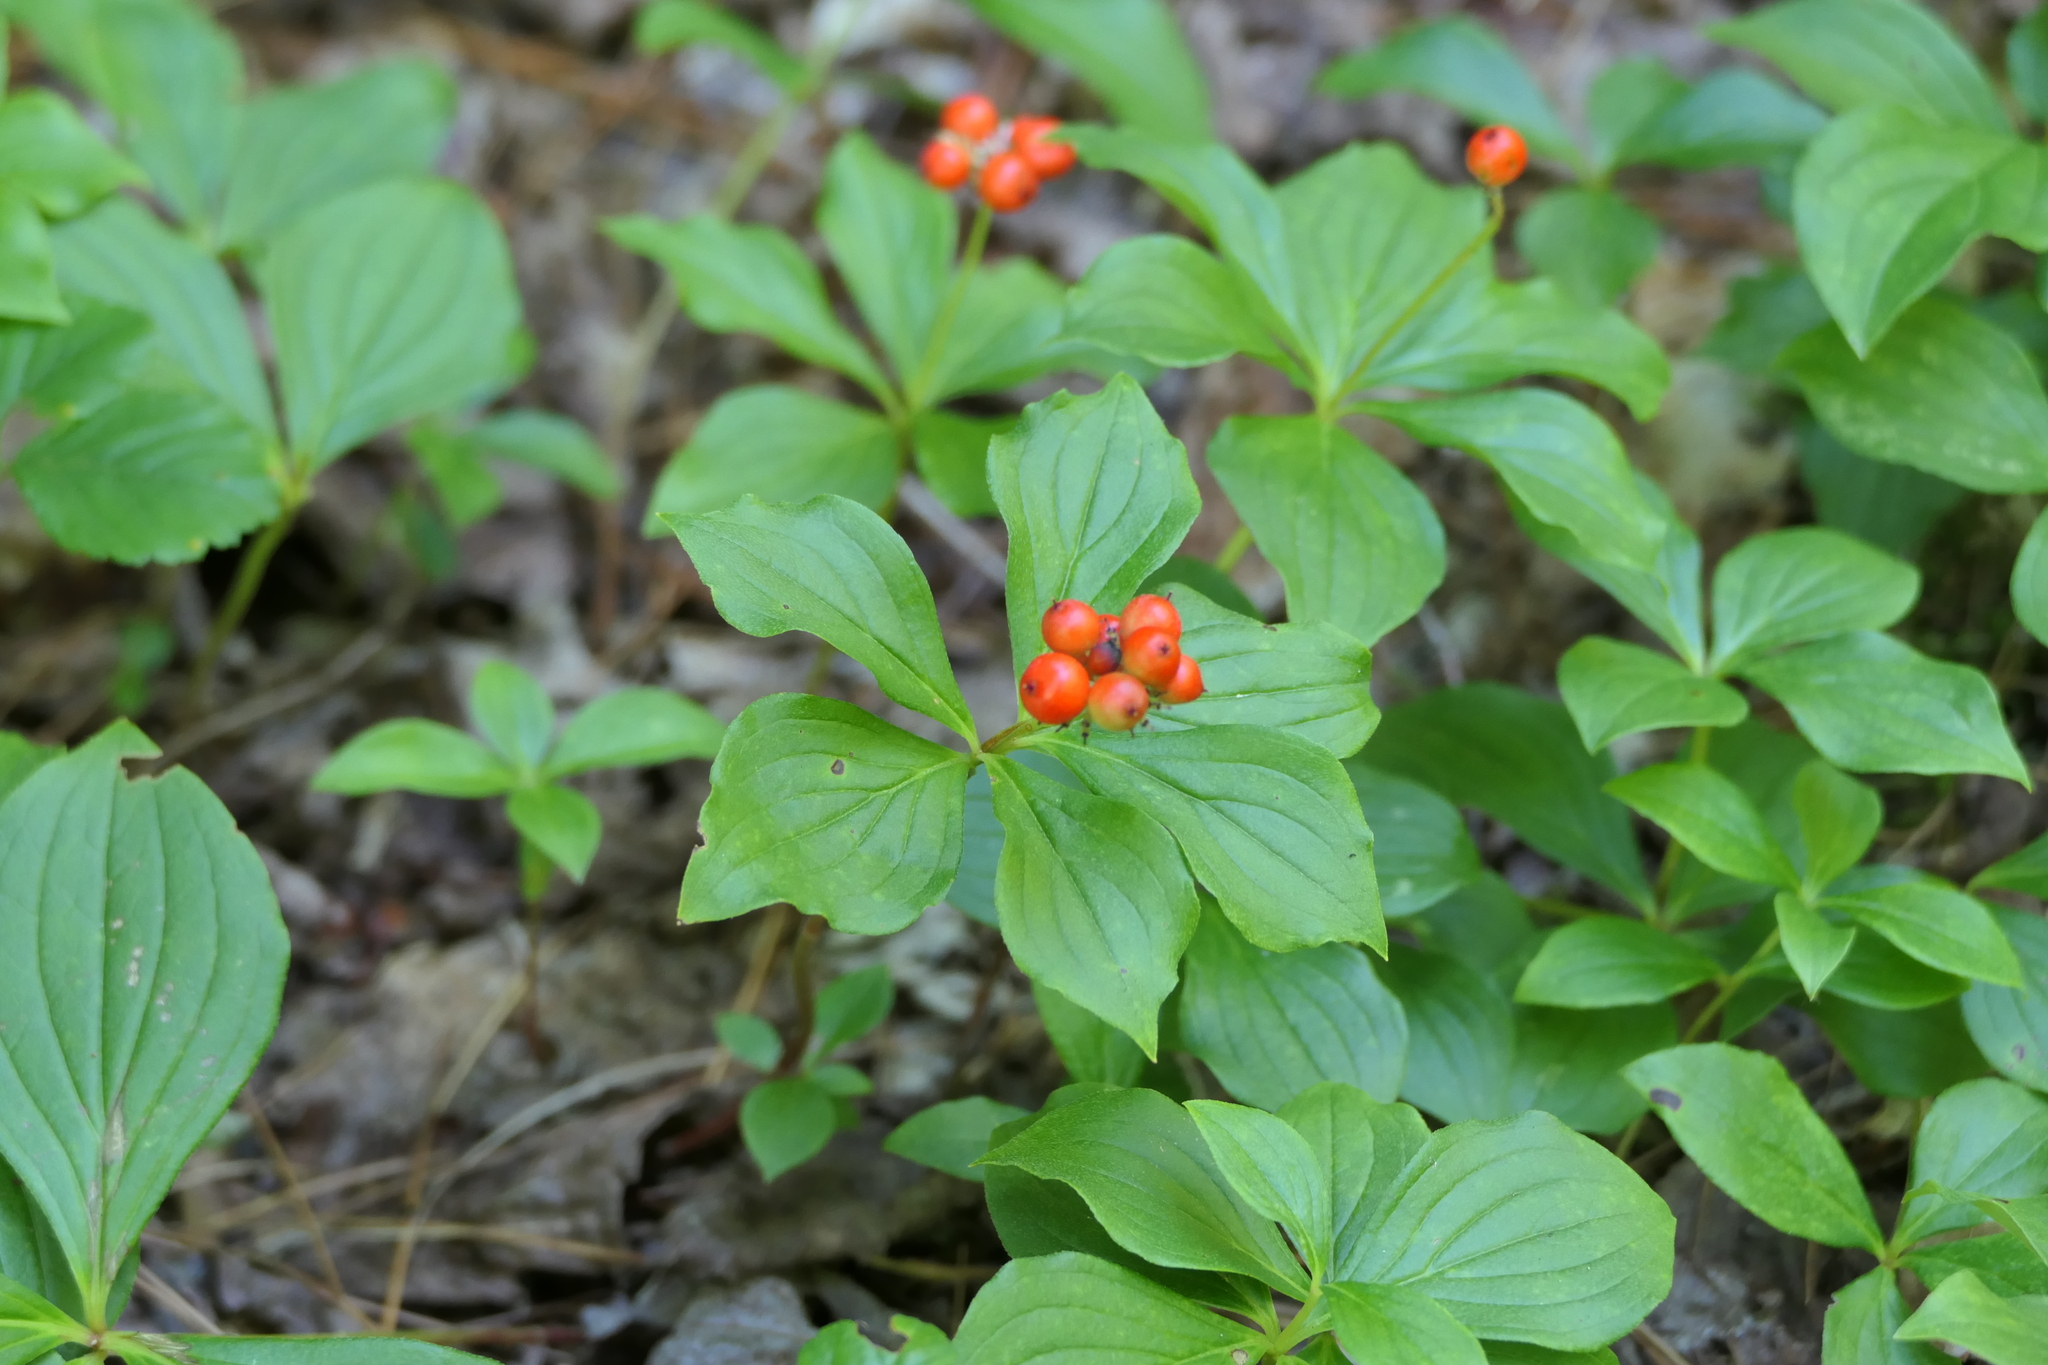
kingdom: Plantae
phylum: Tracheophyta
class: Magnoliopsida
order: Cornales
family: Cornaceae
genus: Cornus
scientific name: Cornus canadensis
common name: Creeping dogwood
